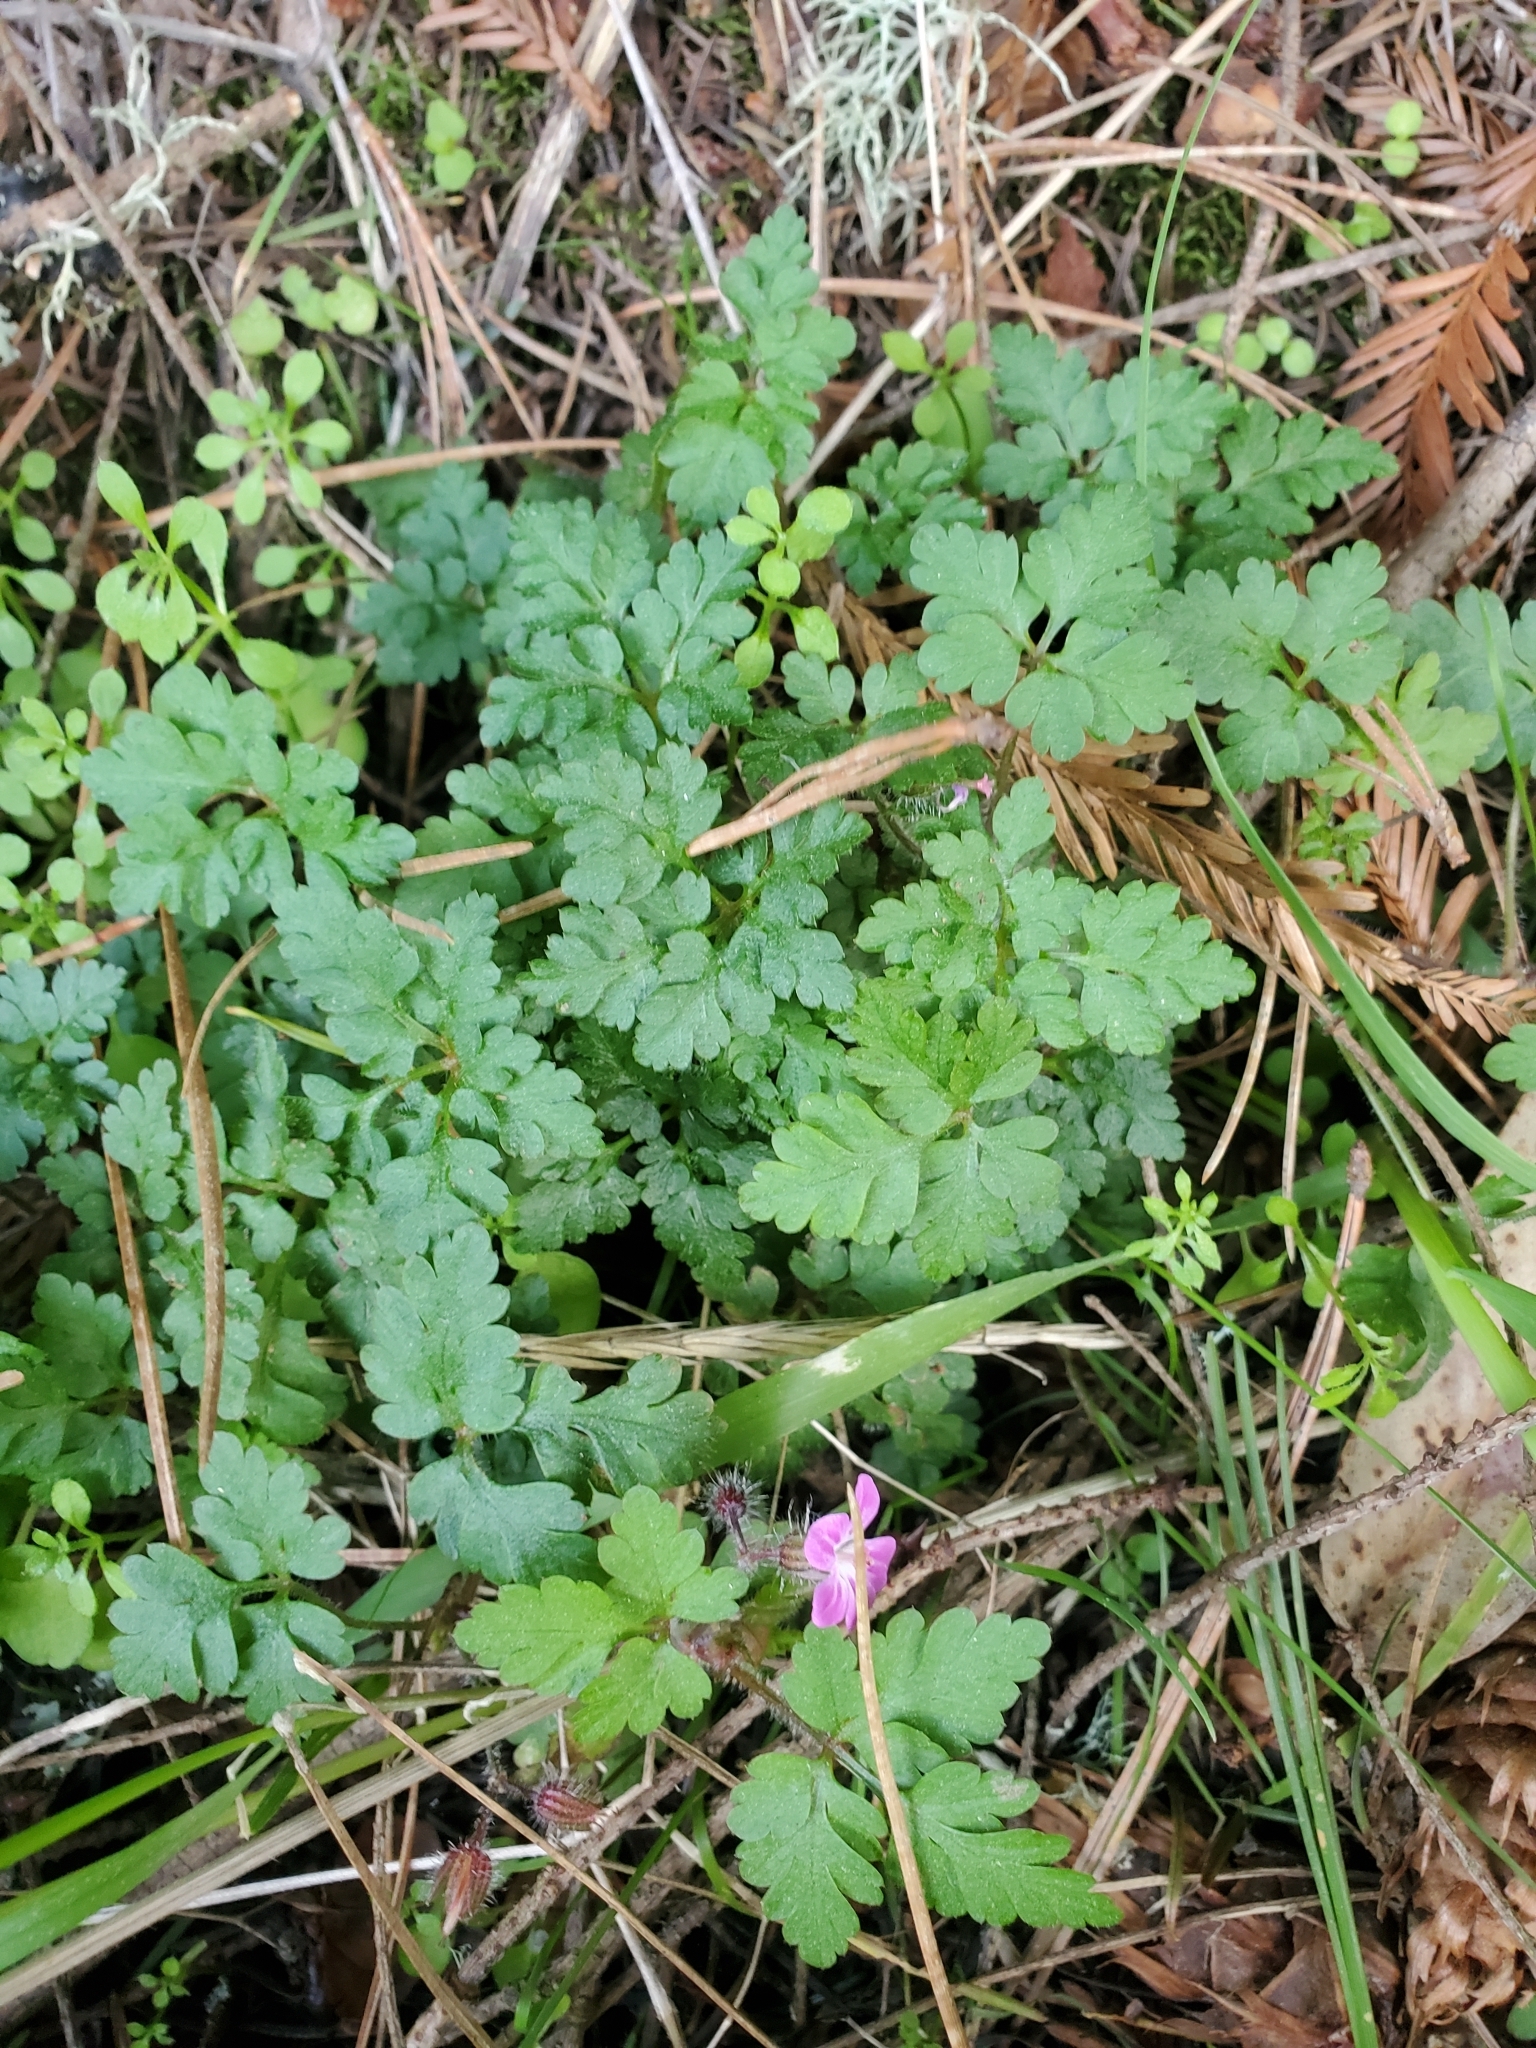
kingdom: Plantae
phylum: Tracheophyta
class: Magnoliopsida
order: Geraniales
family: Geraniaceae
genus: Geranium
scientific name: Geranium robertianum
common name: Herb-robert
